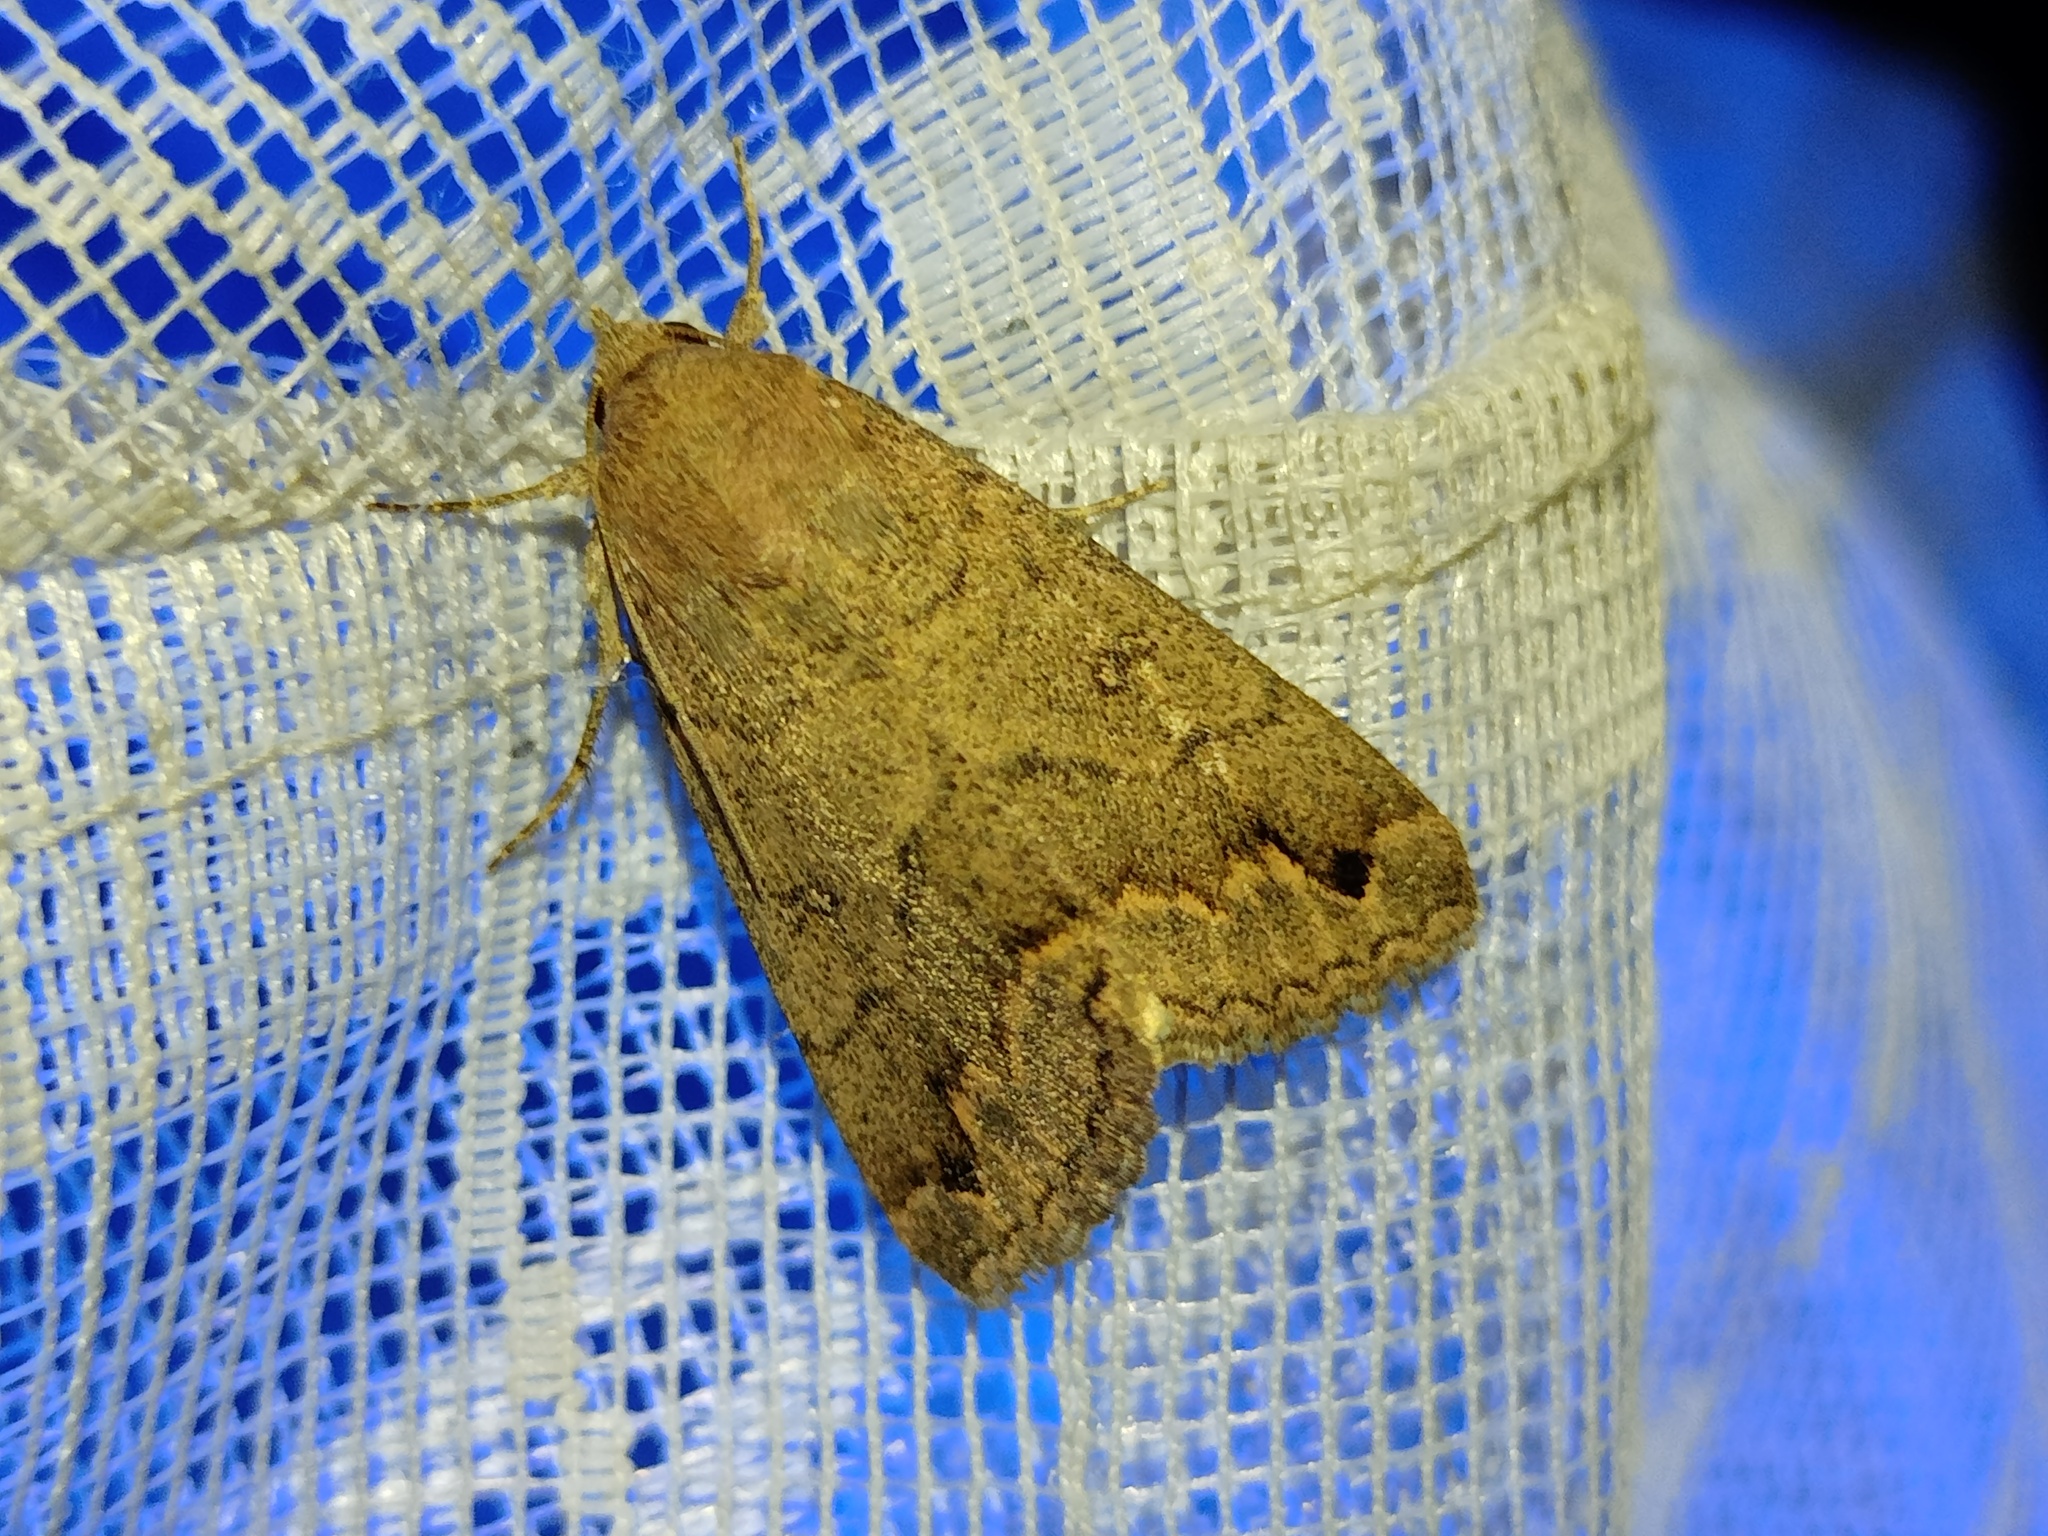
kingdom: Animalia
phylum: Arthropoda
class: Insecta
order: Lepidoptera
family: Erebidae
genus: Clytie
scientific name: Clytie illunaris
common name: Trent double-stripe
